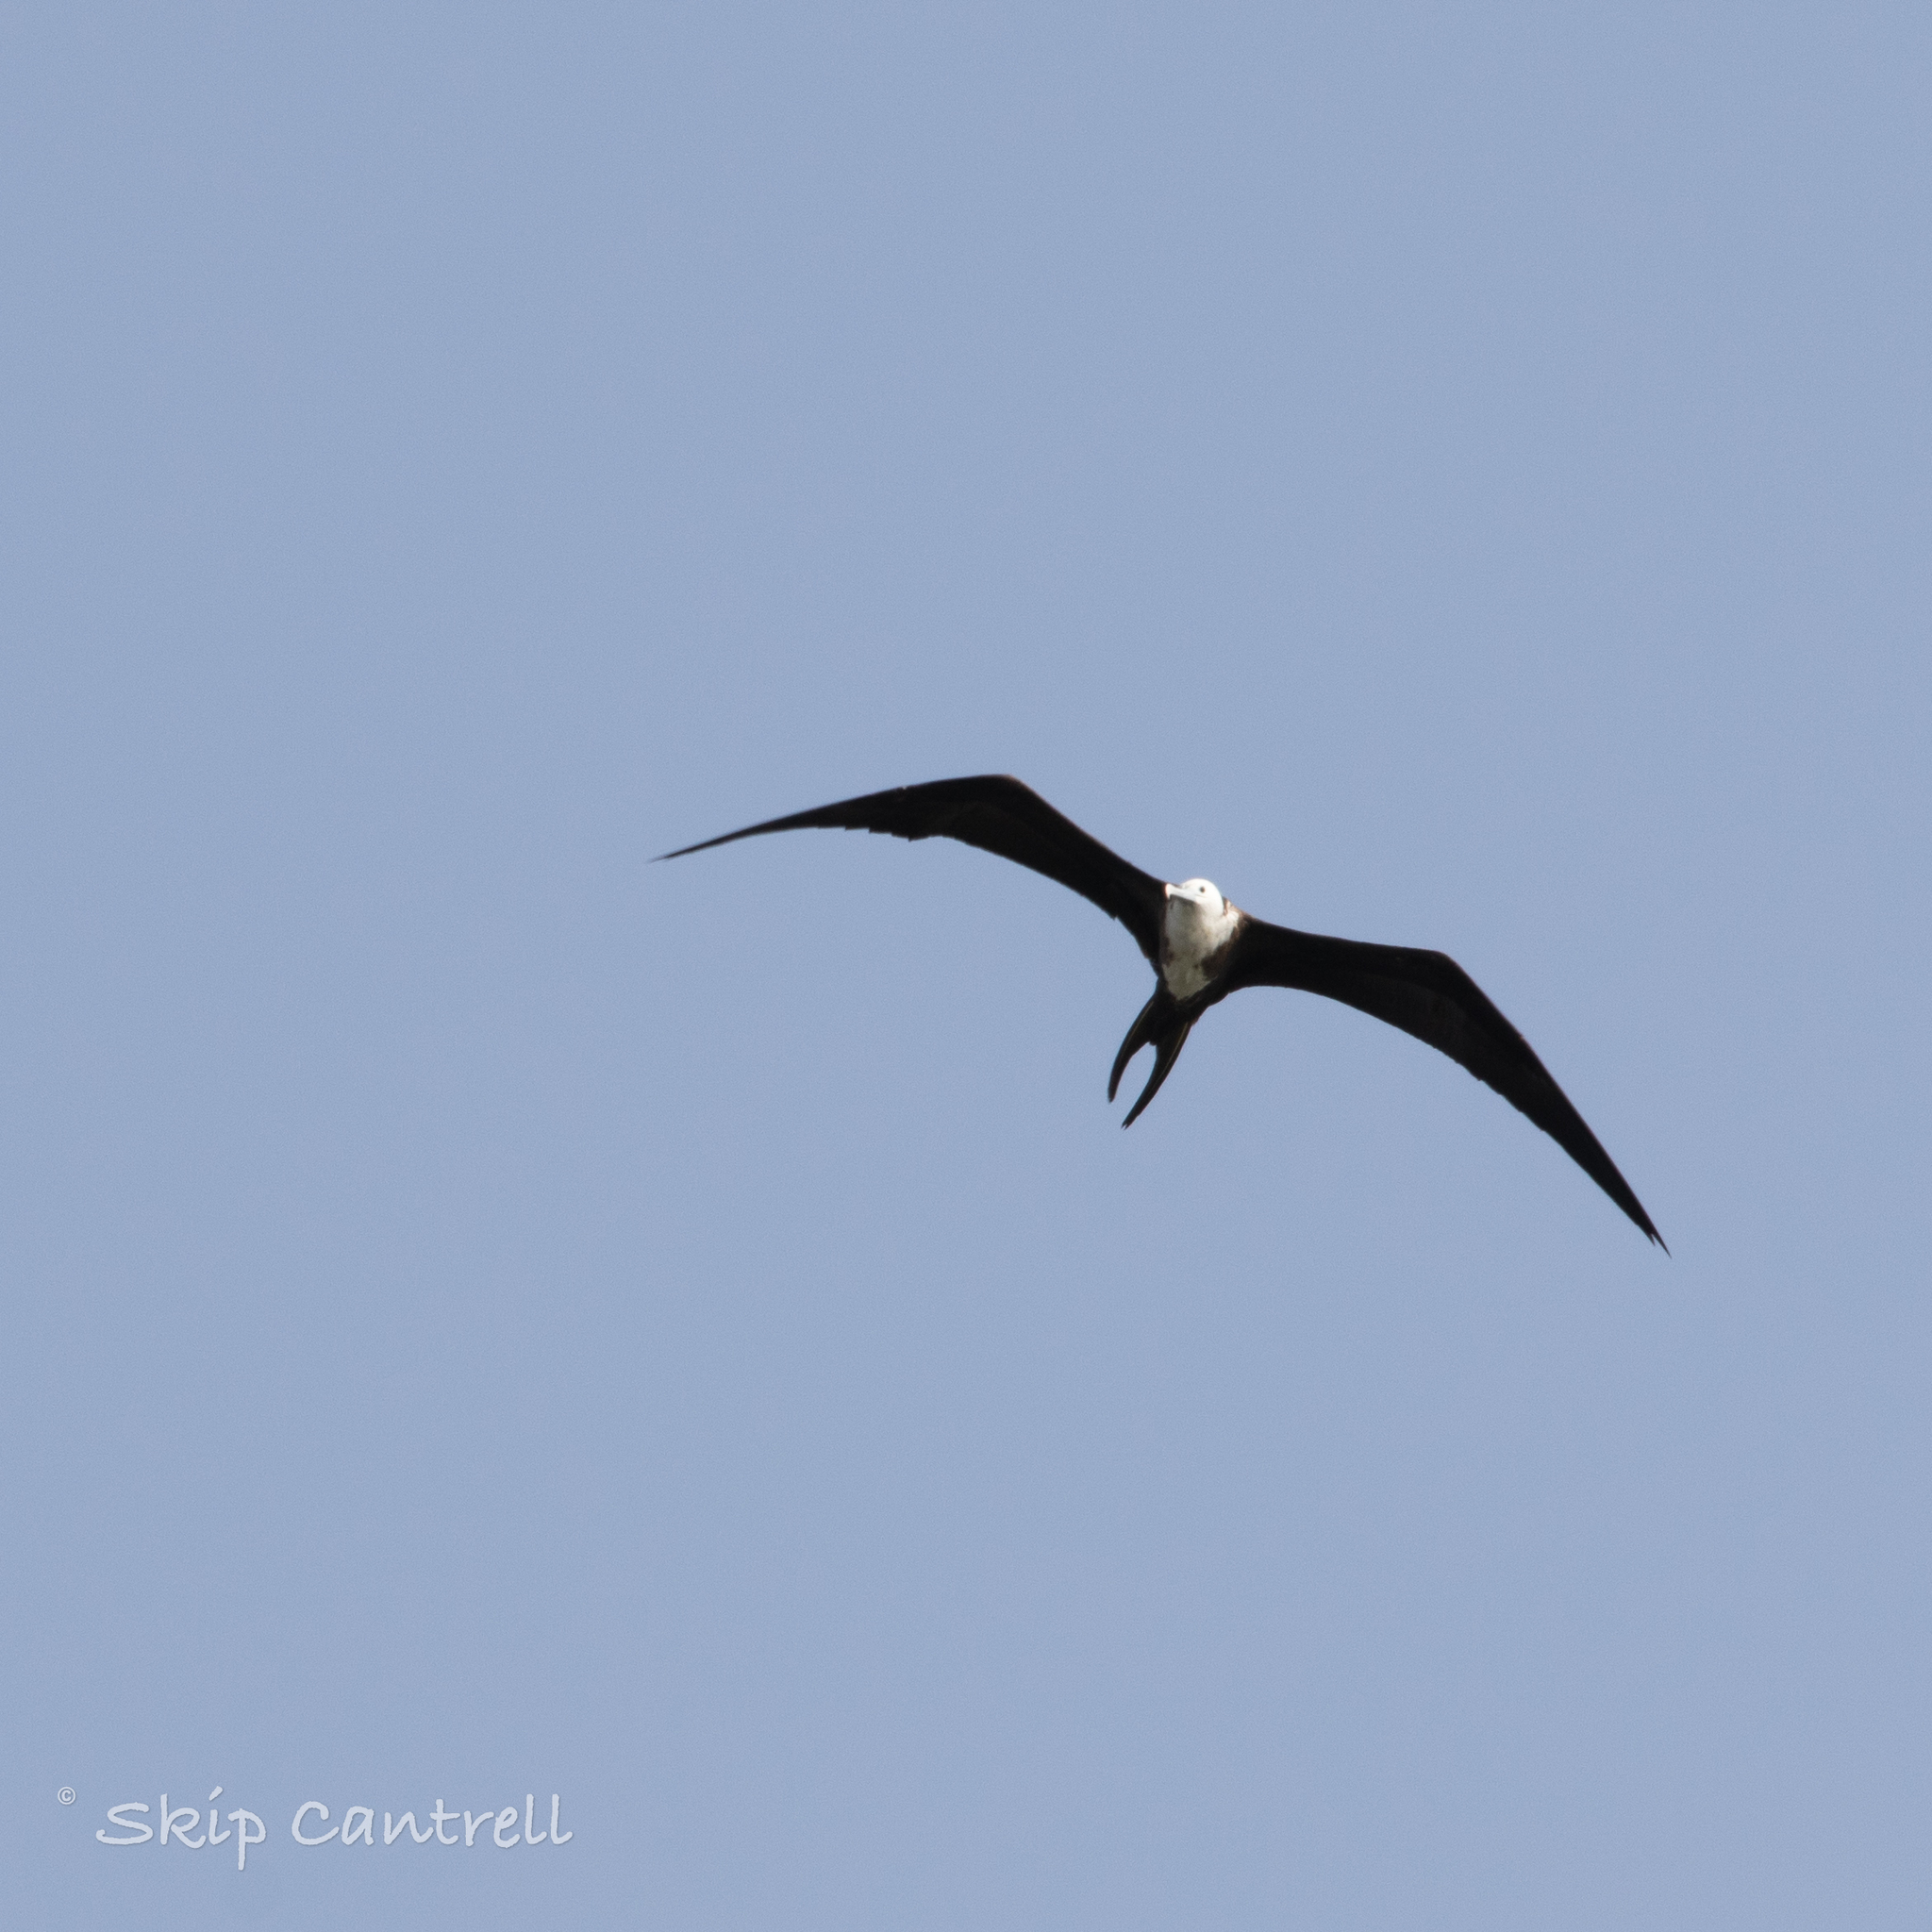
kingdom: Animalia
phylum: Chordata
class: Aves
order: Suliformes
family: Fregatidae
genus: Fregata
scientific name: Fregata magnificens
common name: Magnificent frigatebird
